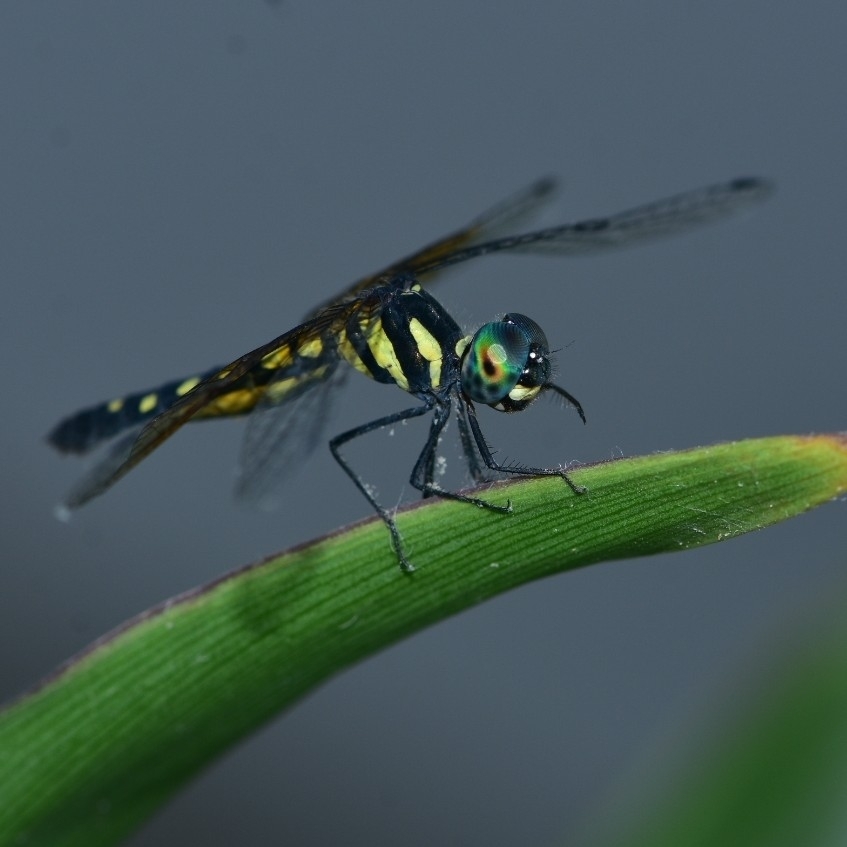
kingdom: Animalia
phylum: Arthropoda
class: Insecta
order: Odonata
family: Libellulidae
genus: Tetrathemis
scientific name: Tetrathemis platyptera
